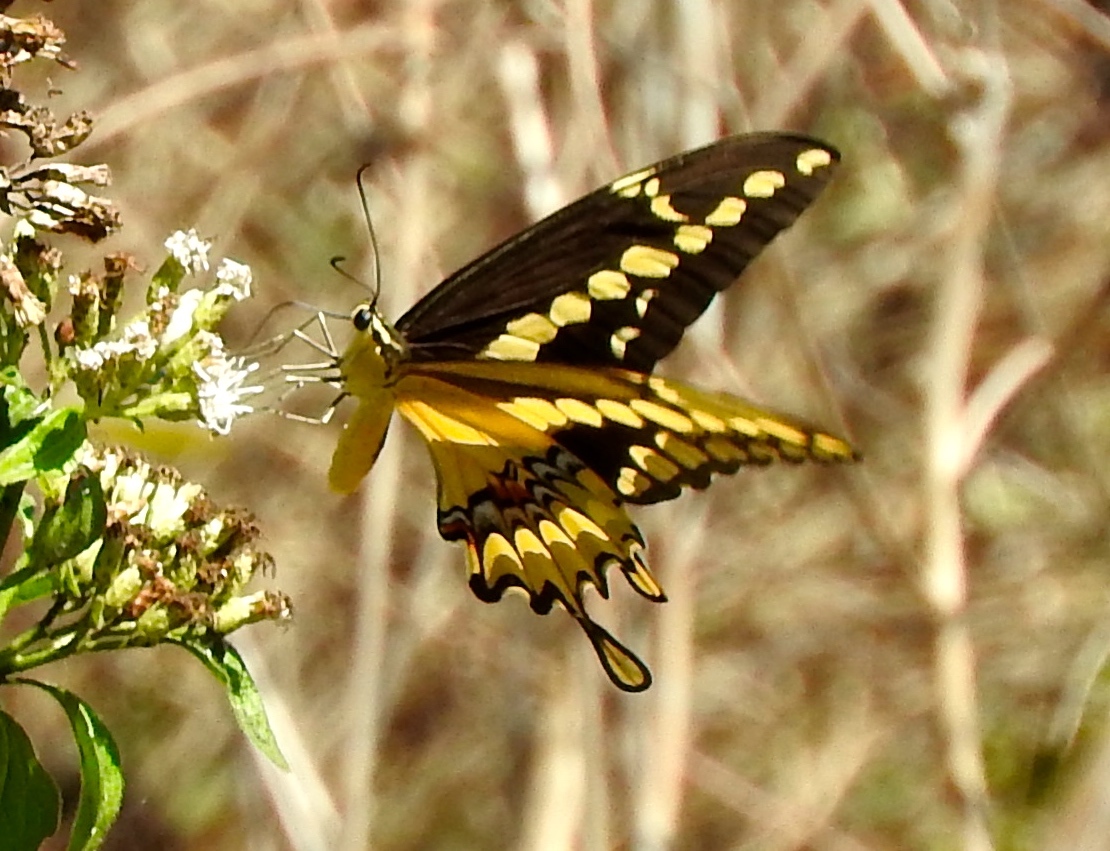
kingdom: Animalia
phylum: Arthropoda
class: Insecta
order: Lepidoptera
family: Papilionidae
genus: Papilio
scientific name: Papilio rumiko
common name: Western giant swallowtail
